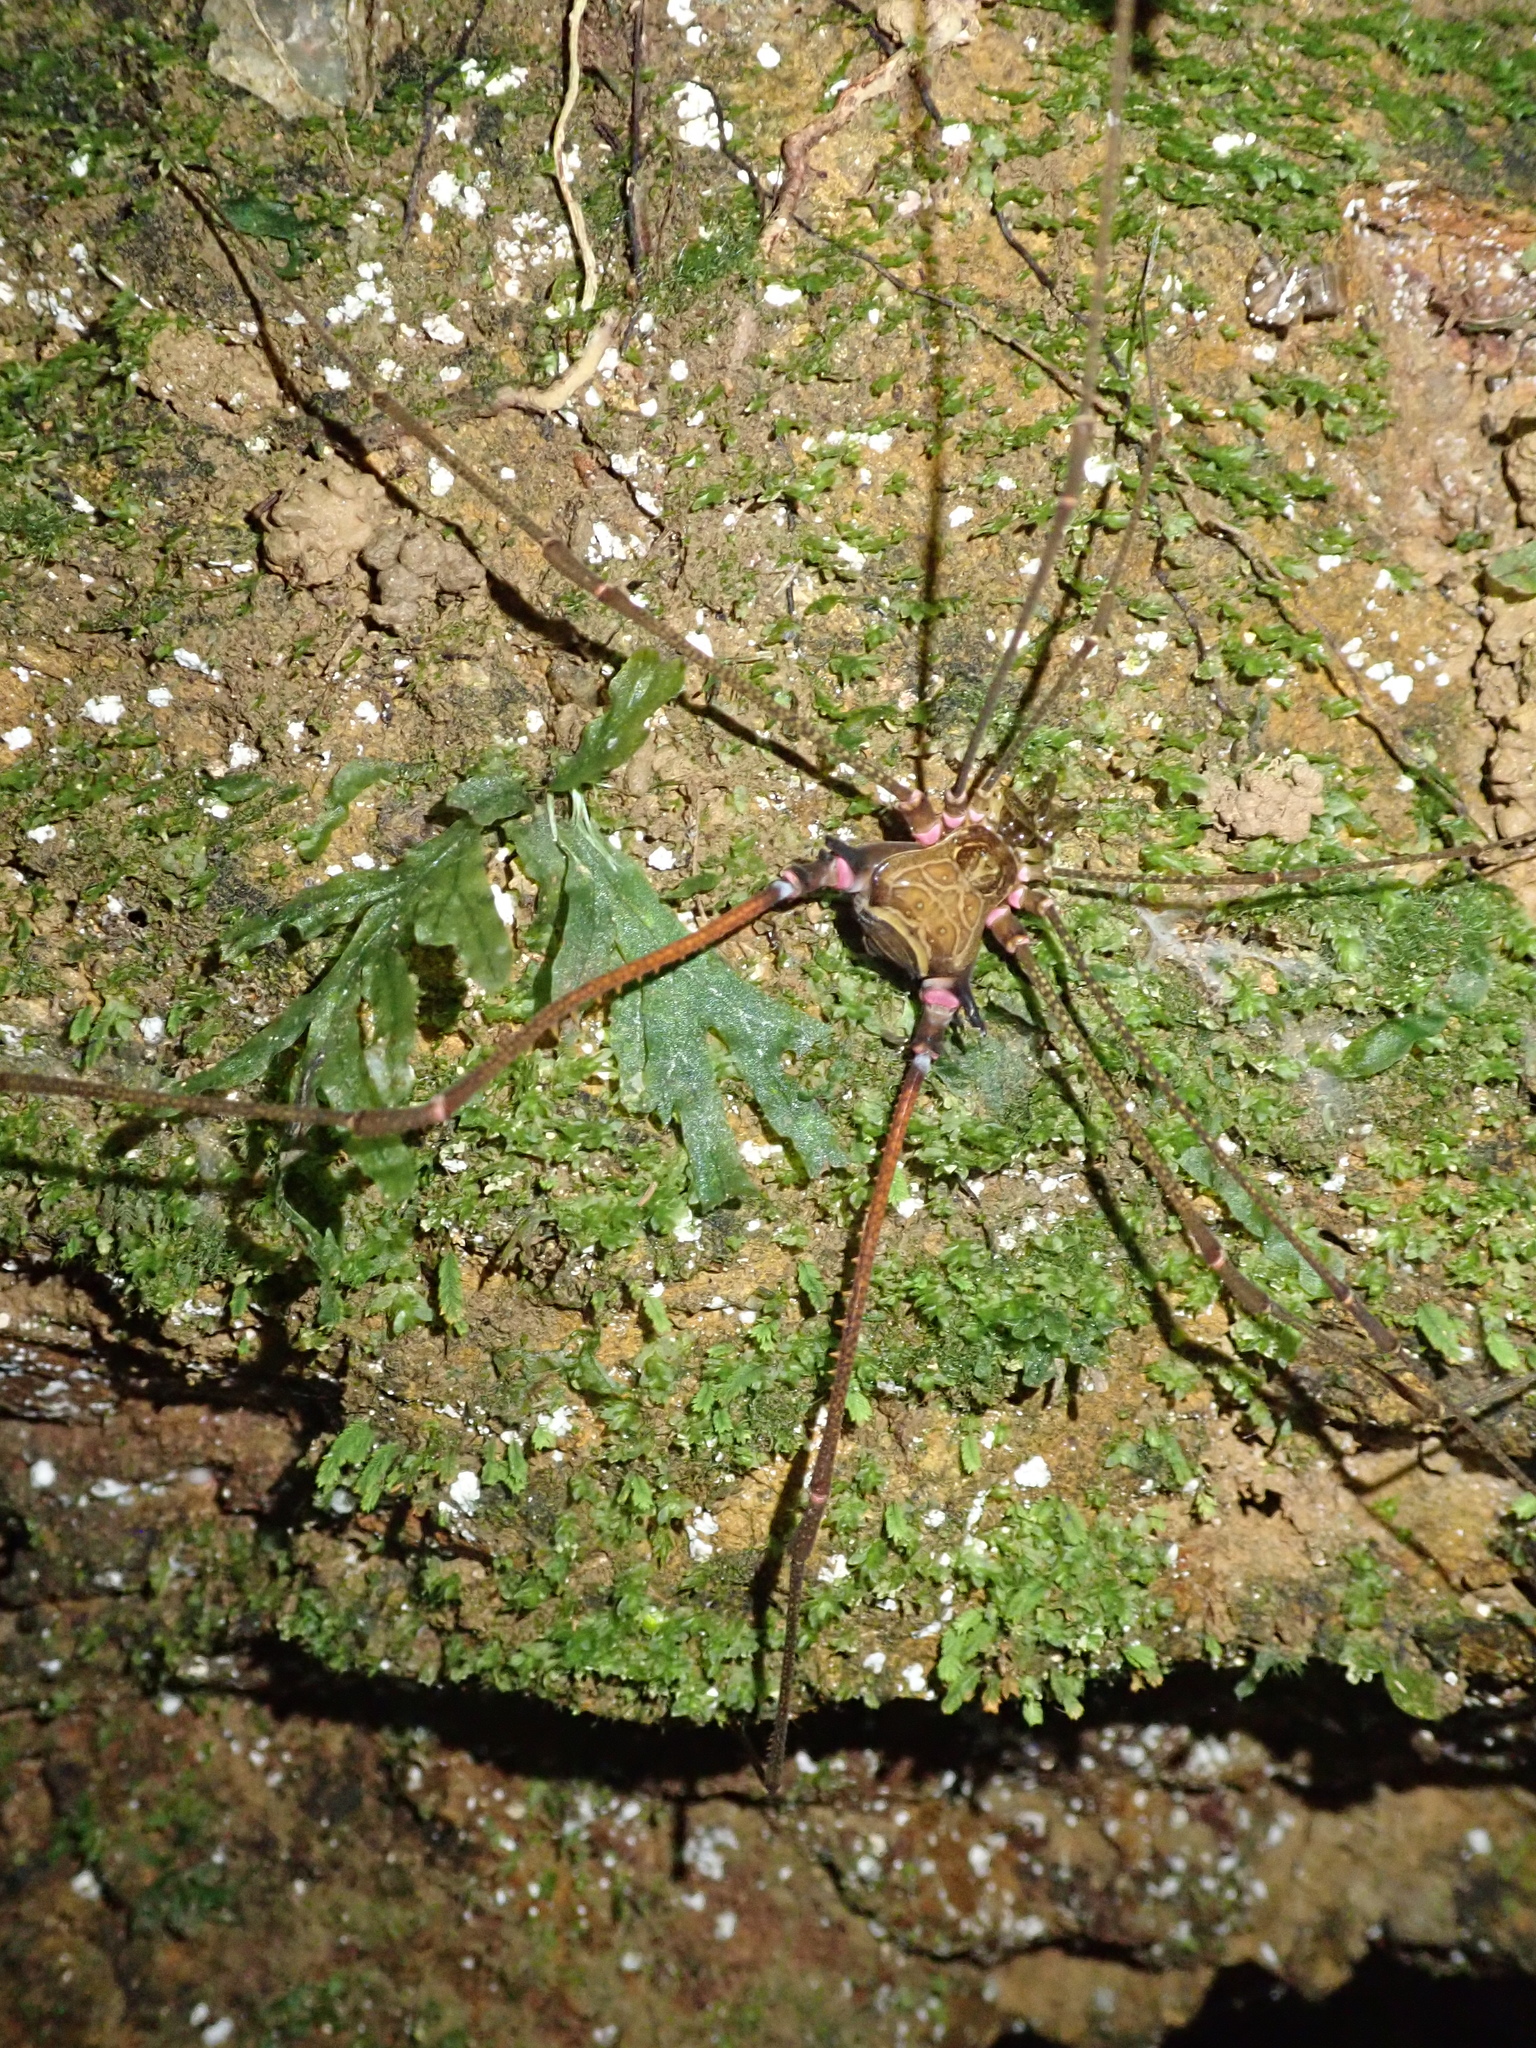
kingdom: Animalia
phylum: Arthropoda
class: Arachnida
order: Opiliones
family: Gonyleptidae
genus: Serracutisoma
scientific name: Serracutisoma inerme
